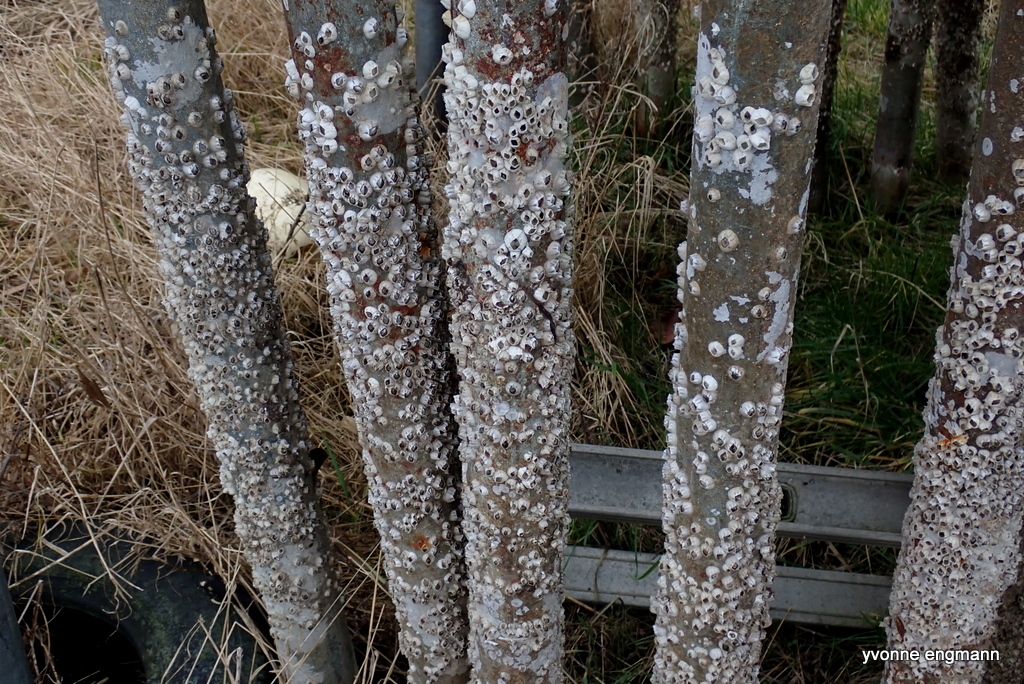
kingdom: Animalia
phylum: Arthropoda
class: Maxillopoda
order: Sessilia
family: Balanidae
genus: Amphibalanus
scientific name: Amphibalanus improvisus
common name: Bay barnacle
